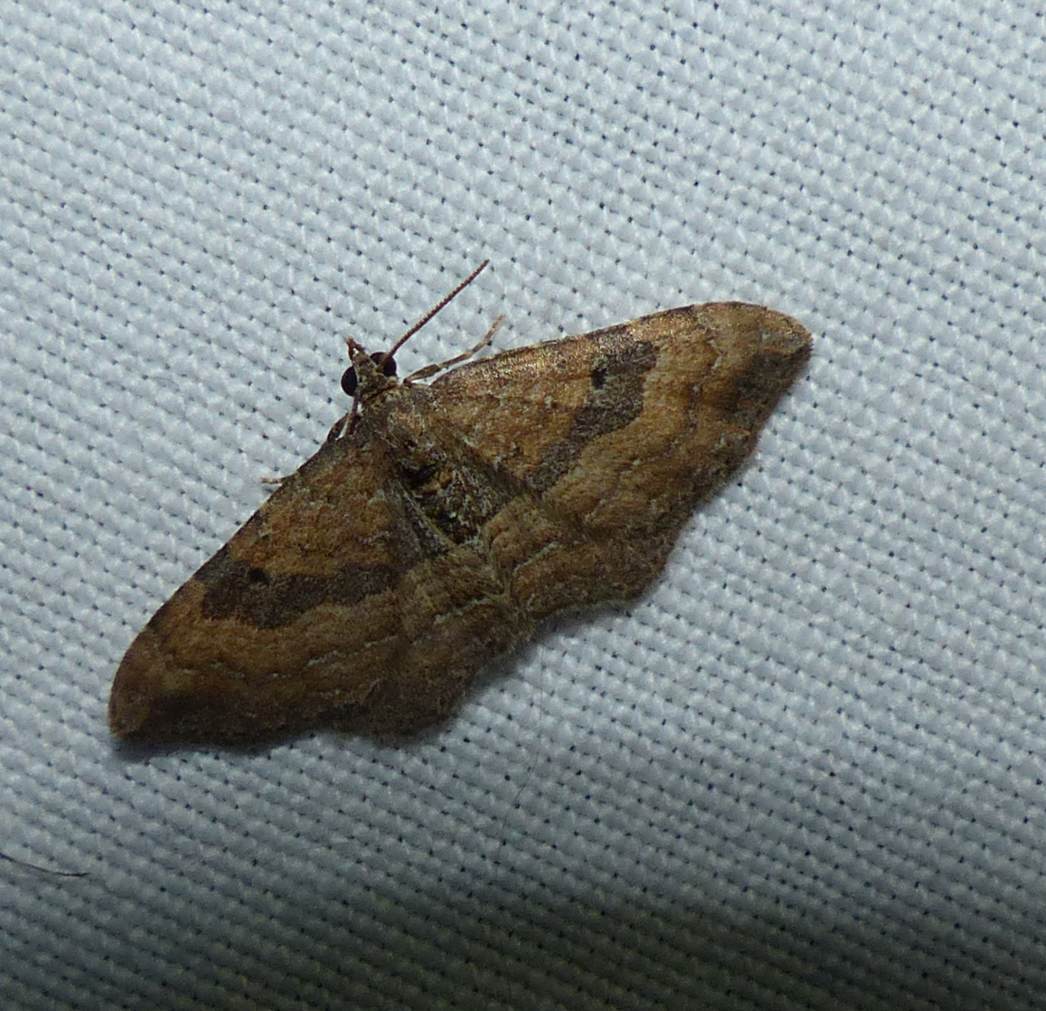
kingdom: Animalia
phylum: Arthropoda
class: Insecta
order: Lepidoptera
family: Geometridae
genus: Orthonama
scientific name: Orthonama obstipata
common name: The gem
